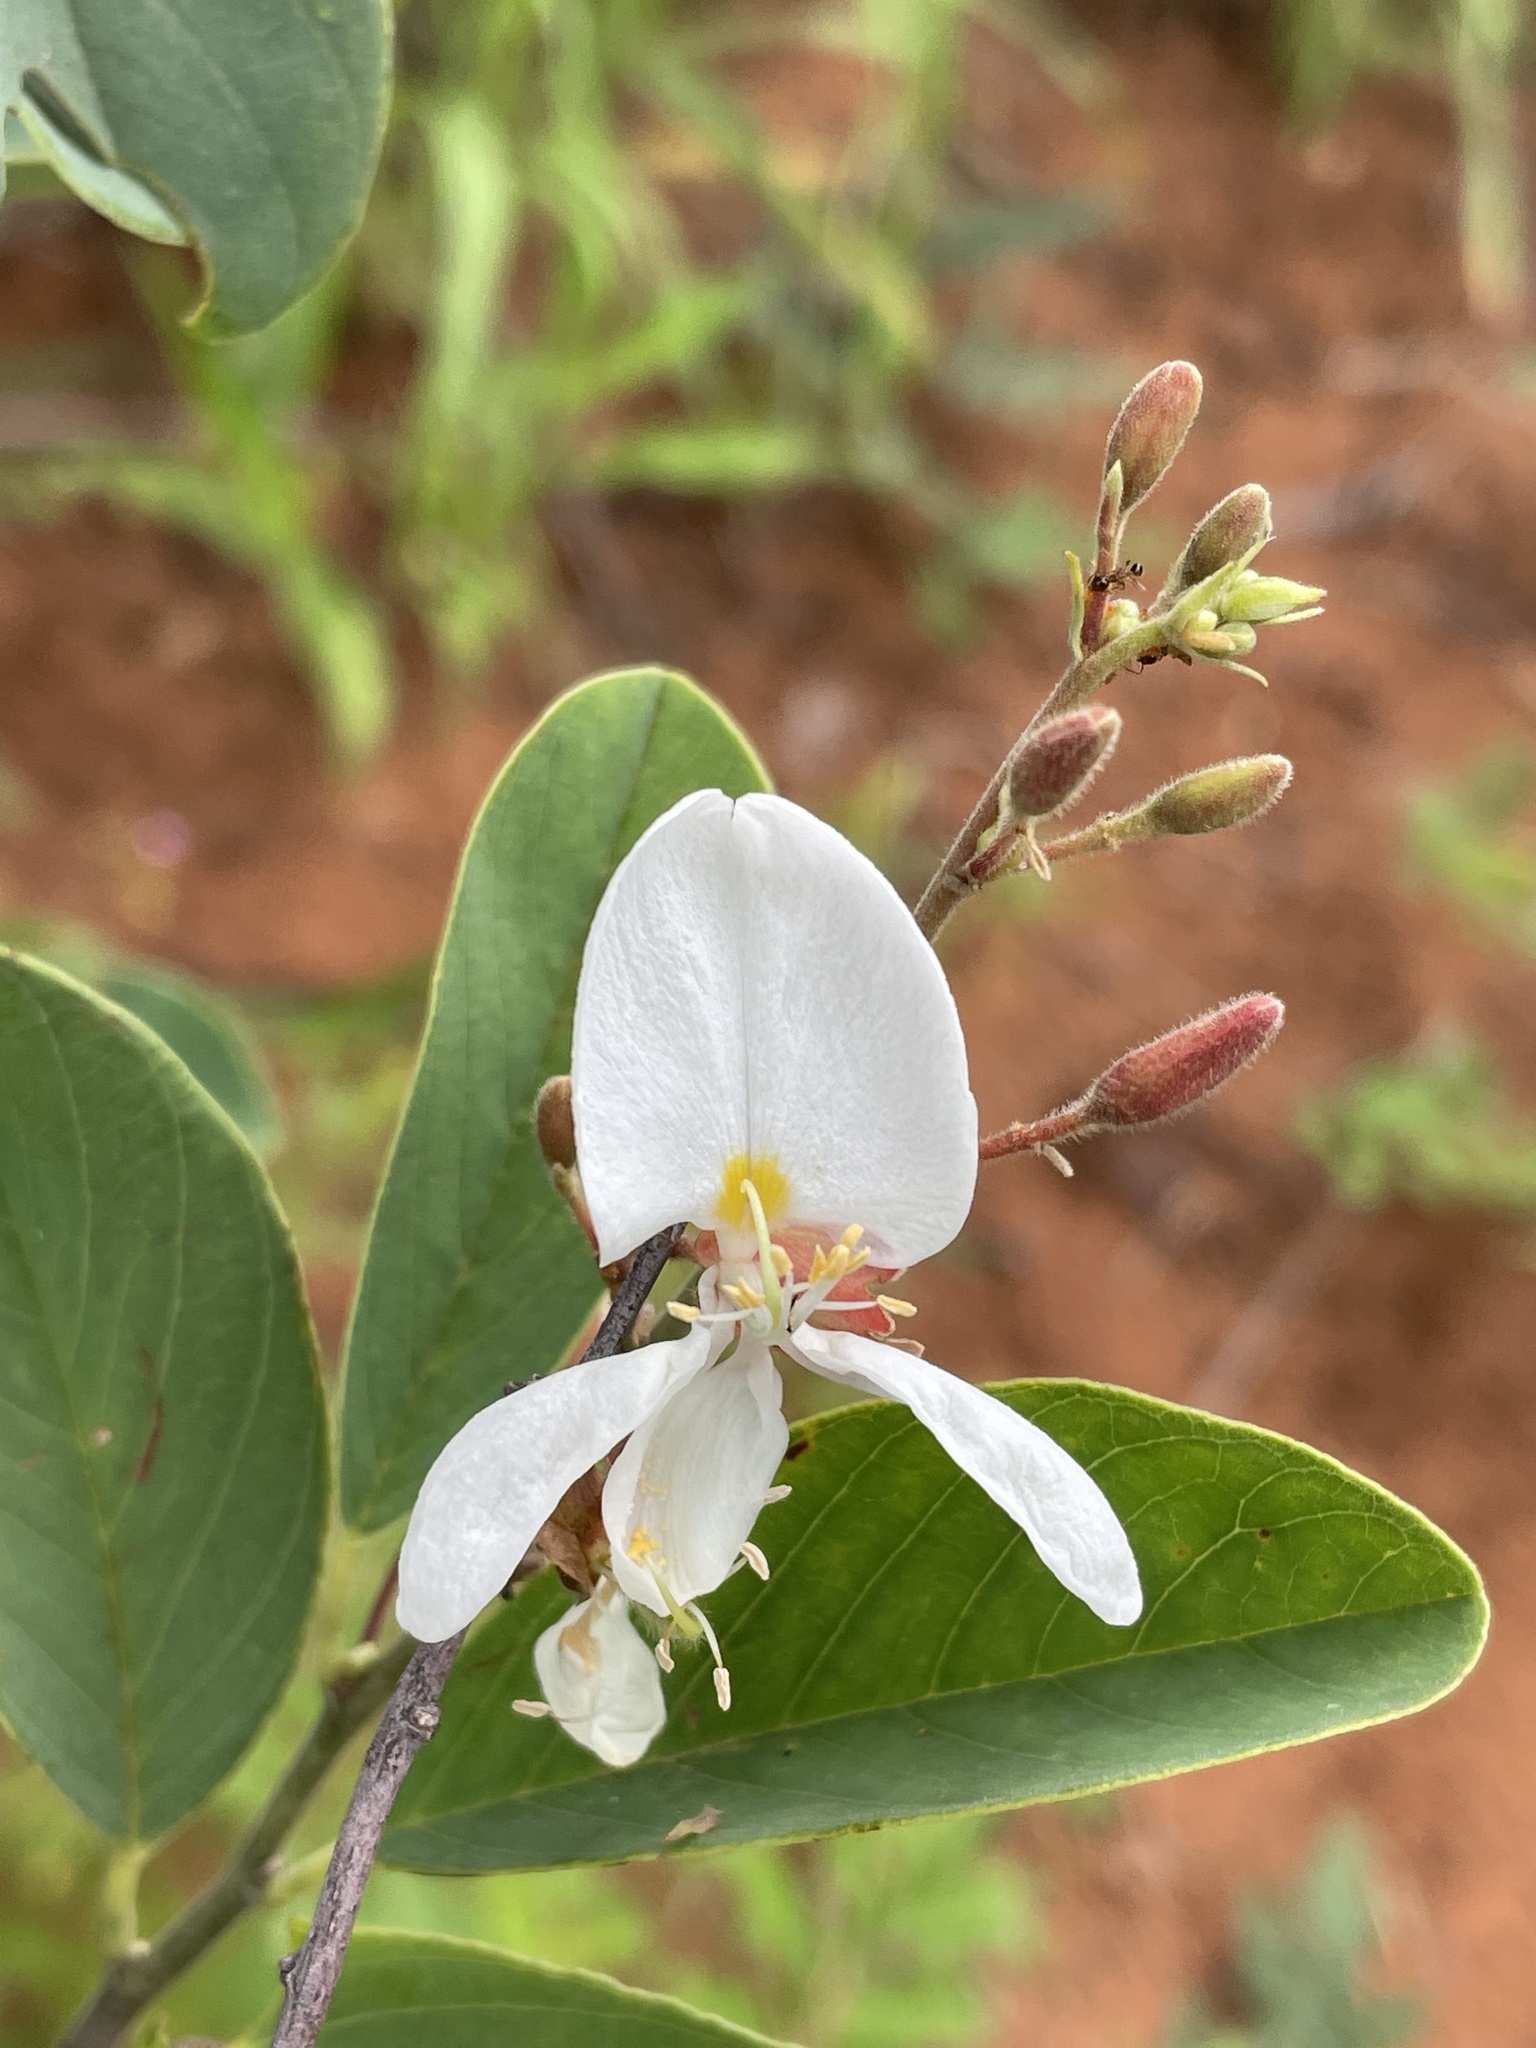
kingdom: Plantae
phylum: Tracheophyta
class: Magnoliopsida
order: Fabales
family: Fabaceae
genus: Baphia
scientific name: Baphia massaiensis
